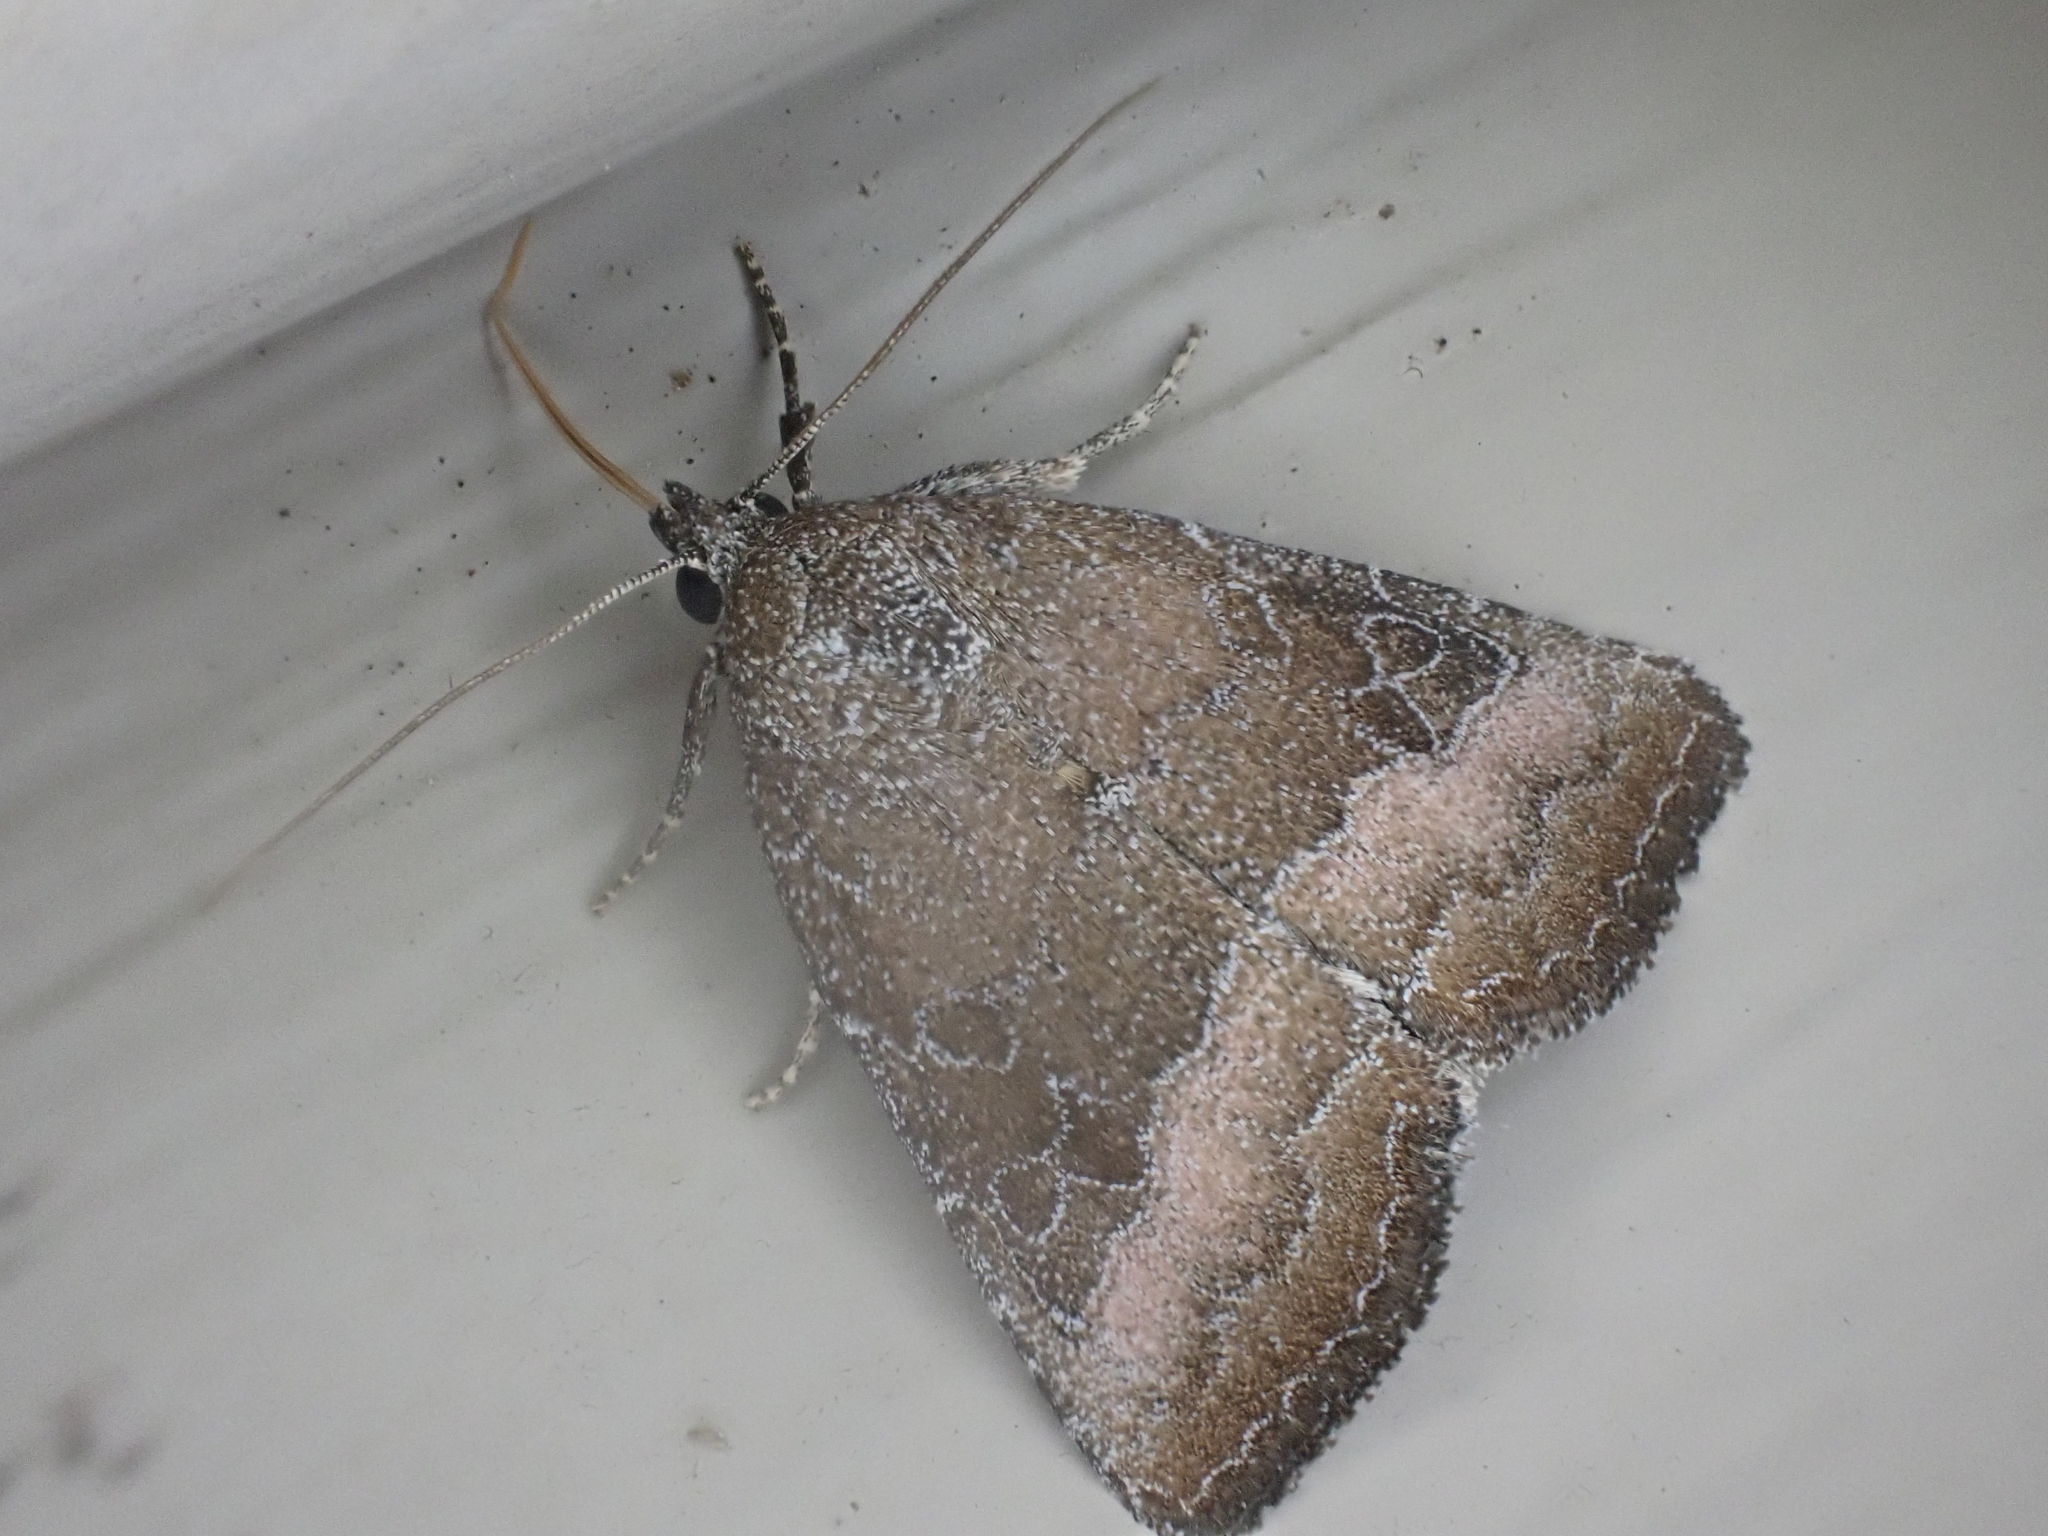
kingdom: Animalia
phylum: Arthropoda
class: Insecta
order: Lepidoptera
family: Noctuidae
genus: Ogdoconta
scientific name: Ogdoconta cinereola
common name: Common pinkband
